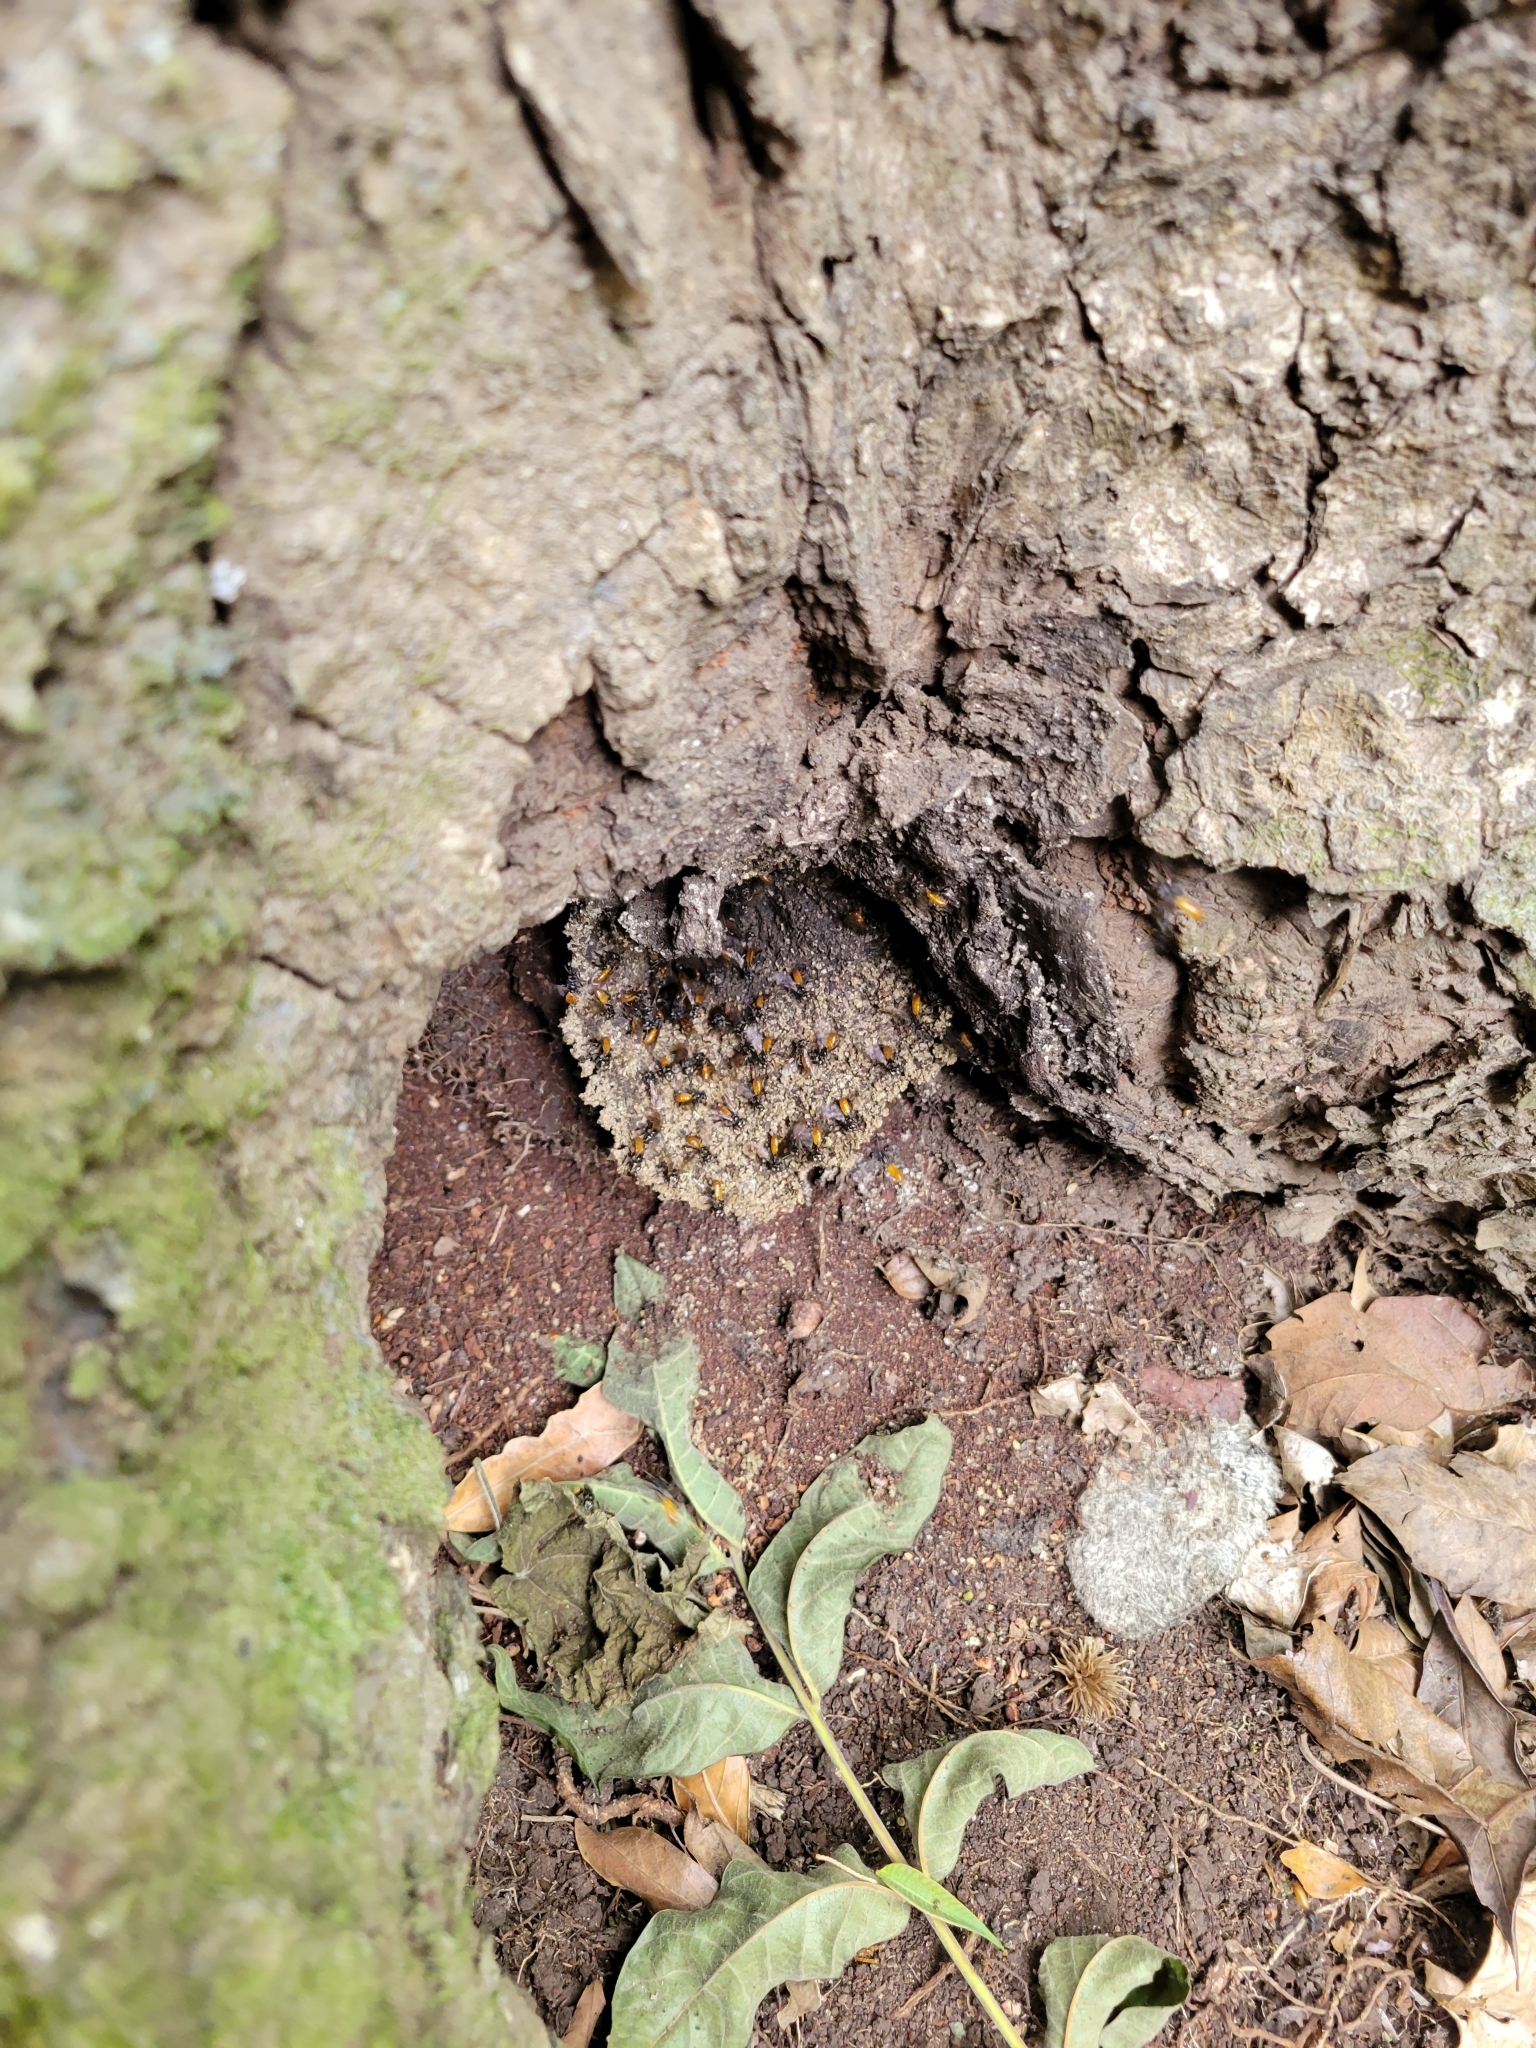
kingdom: Animalia
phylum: Arthropoda
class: Insecta
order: Hymenoptera
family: Apidae
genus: Trigona
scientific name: Trigona fulviventris
